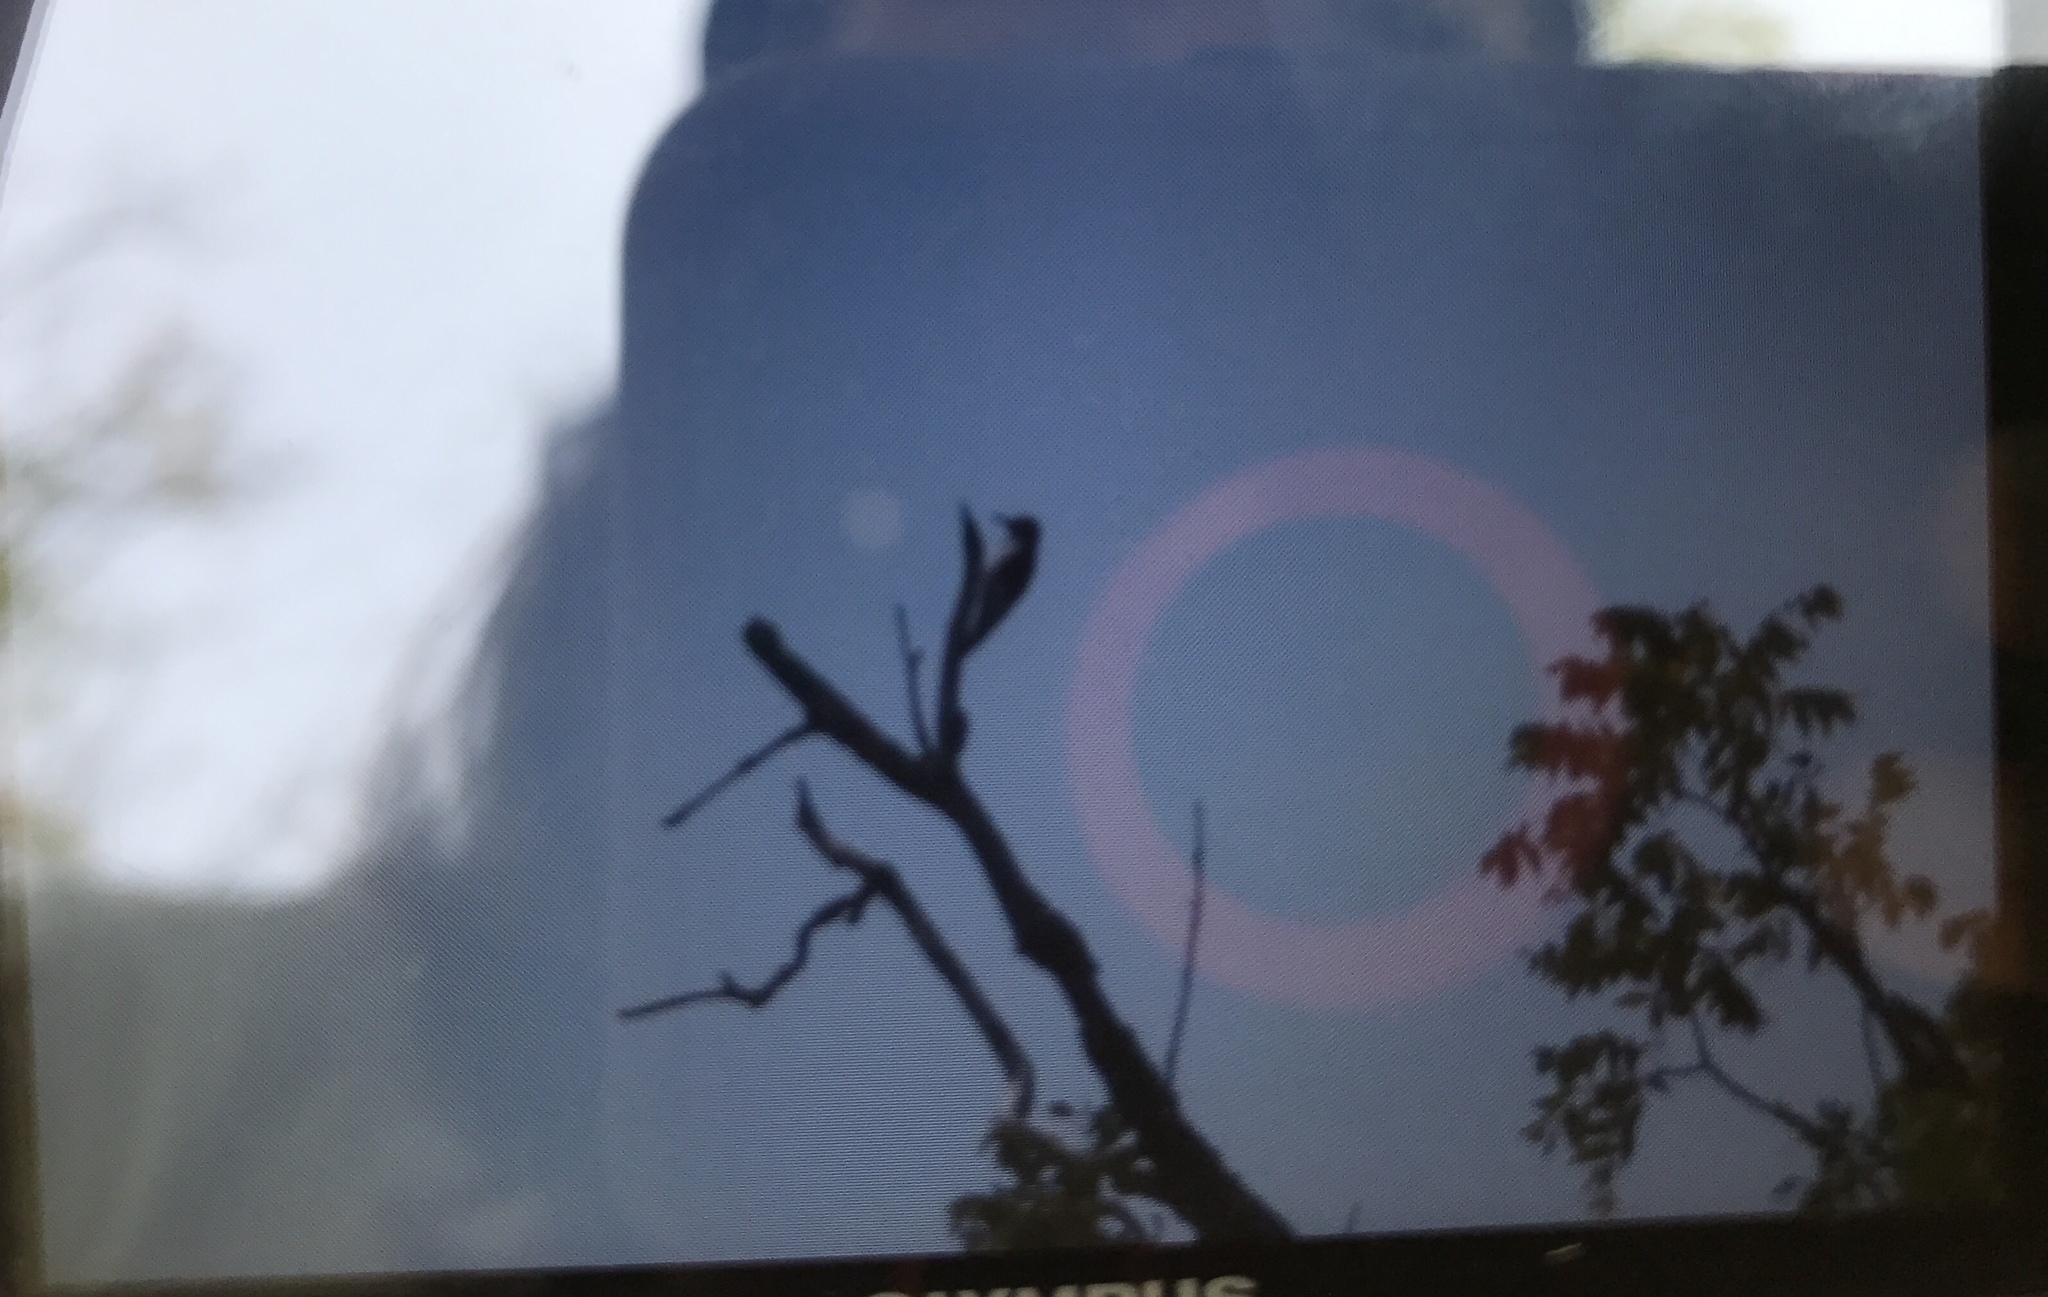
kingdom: Animalia
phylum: Chordata
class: Aves
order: Piciformes
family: Picidae
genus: Melanerpes
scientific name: Melanerpes erythrocephalus
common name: Red-headed woodpecker
